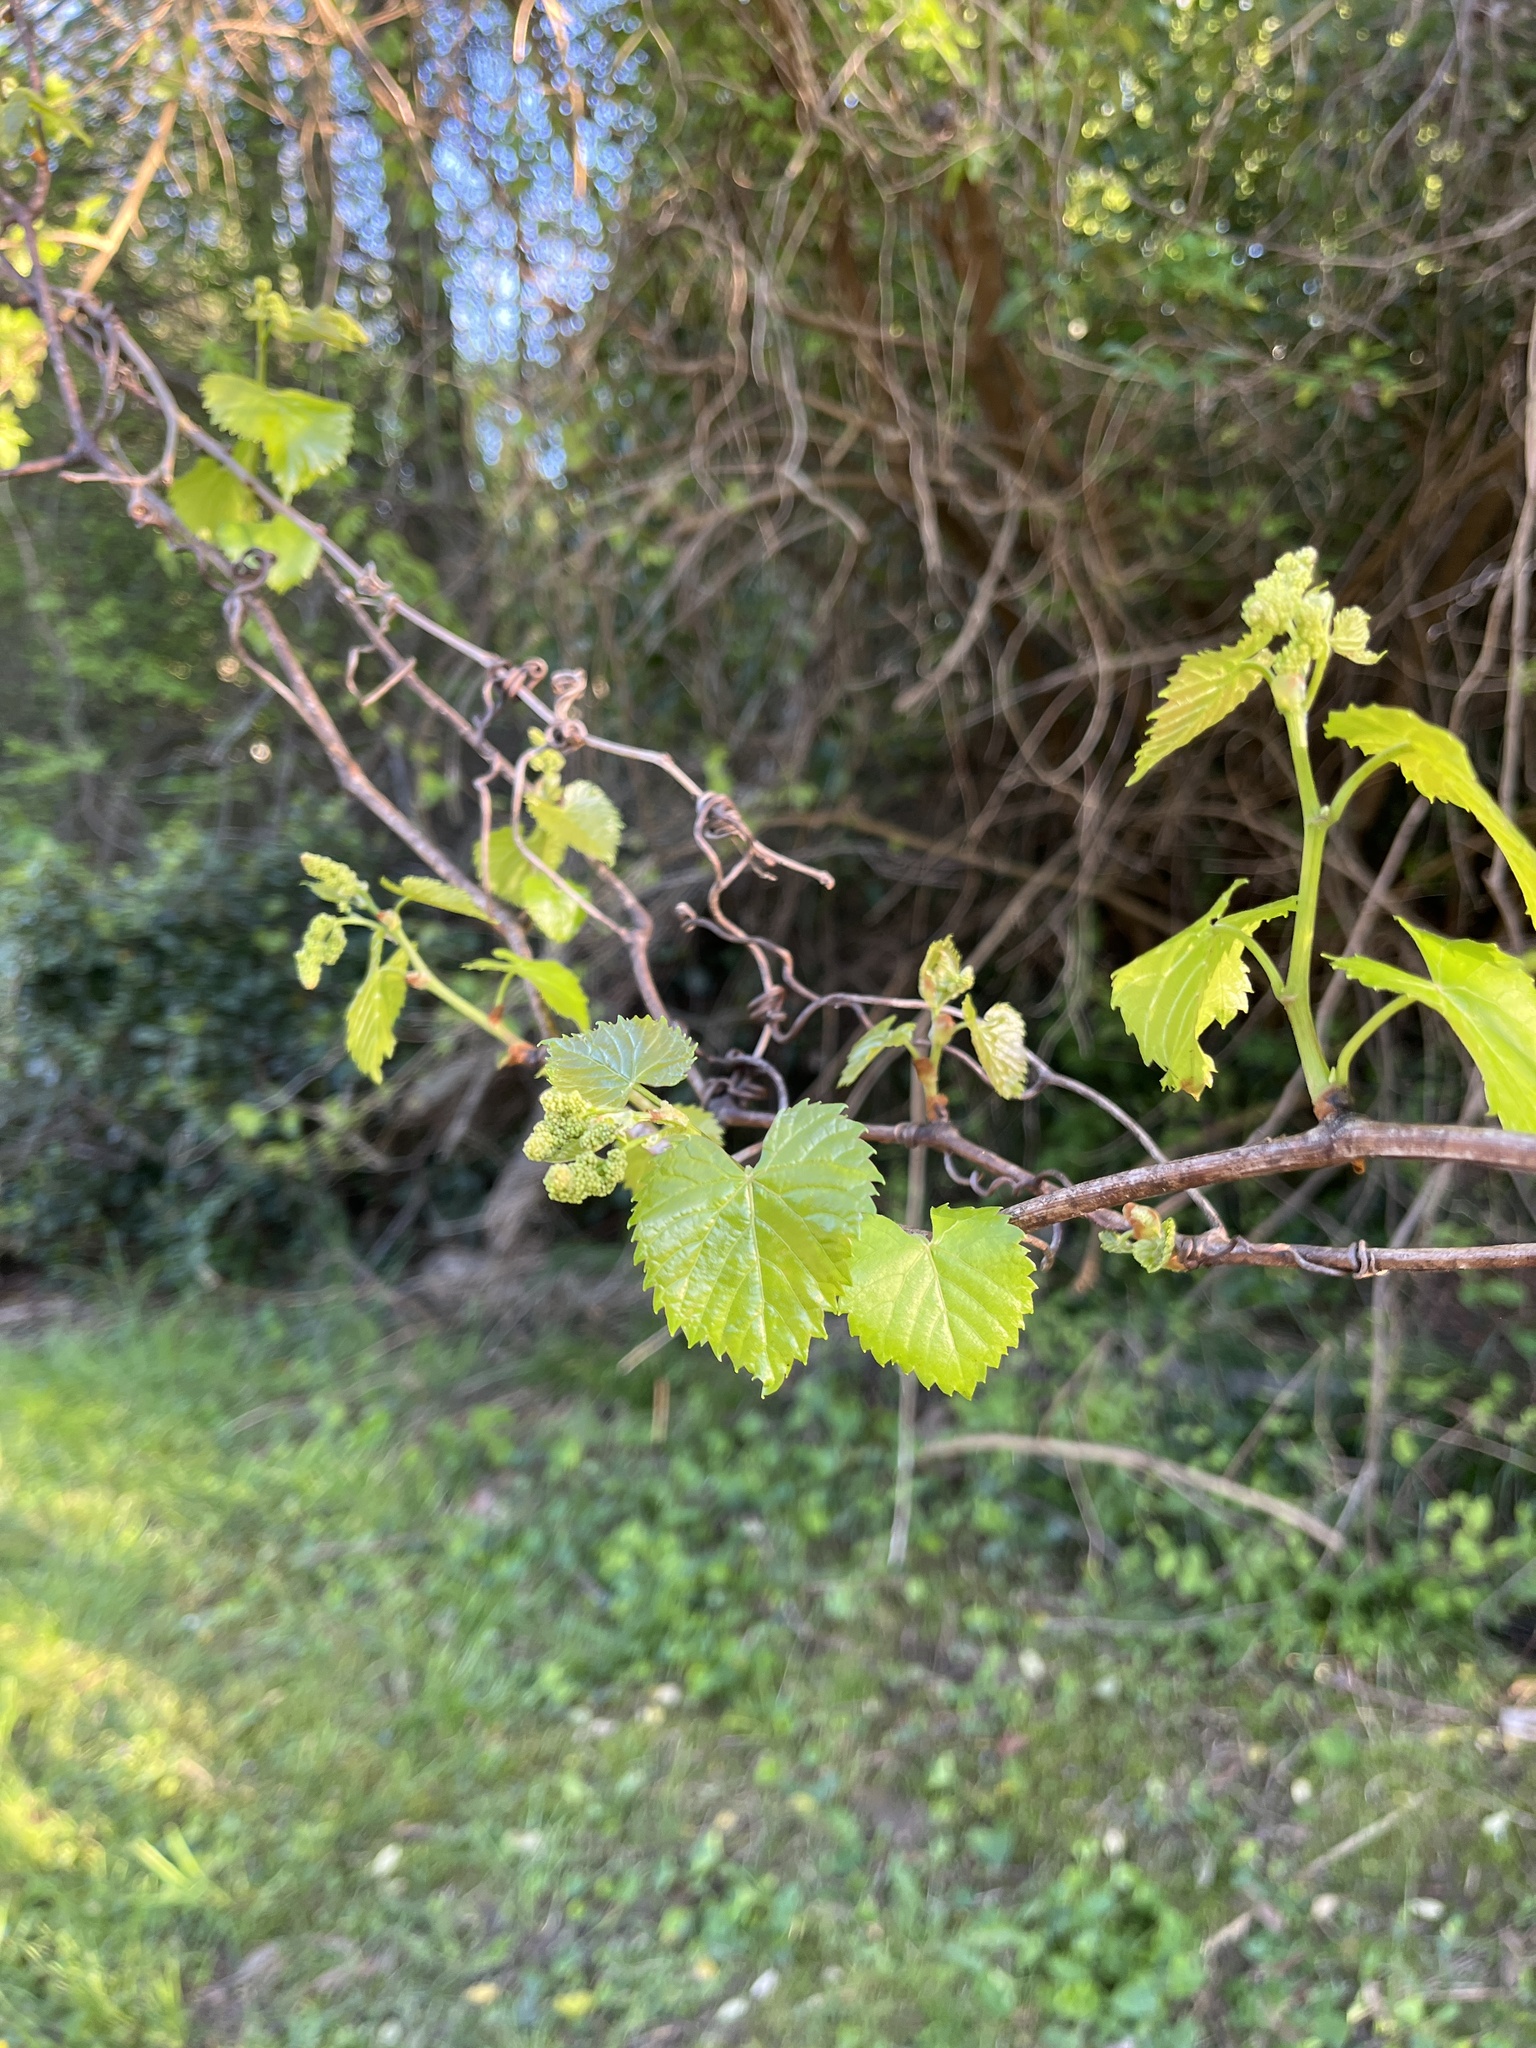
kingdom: Plantae
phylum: Tracheophyta
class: Magnoliopsida
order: Vitales
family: Vitaceae
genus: Vitis
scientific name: Vitis rotundifolia
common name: Muscadine grape
